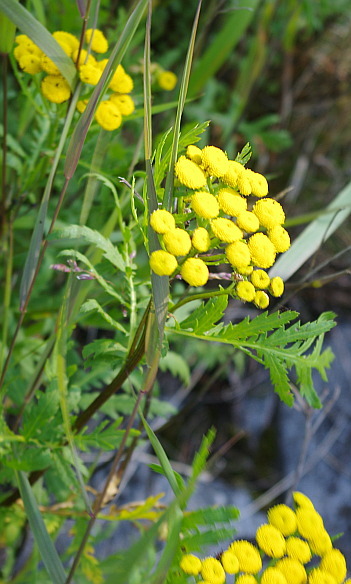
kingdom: Plantae
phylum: Tracheophyta
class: Magnoliopsida
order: Asterales
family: Asteraceae
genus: Tanacetum
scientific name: Tanacetum vulgare
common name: Common tansy
